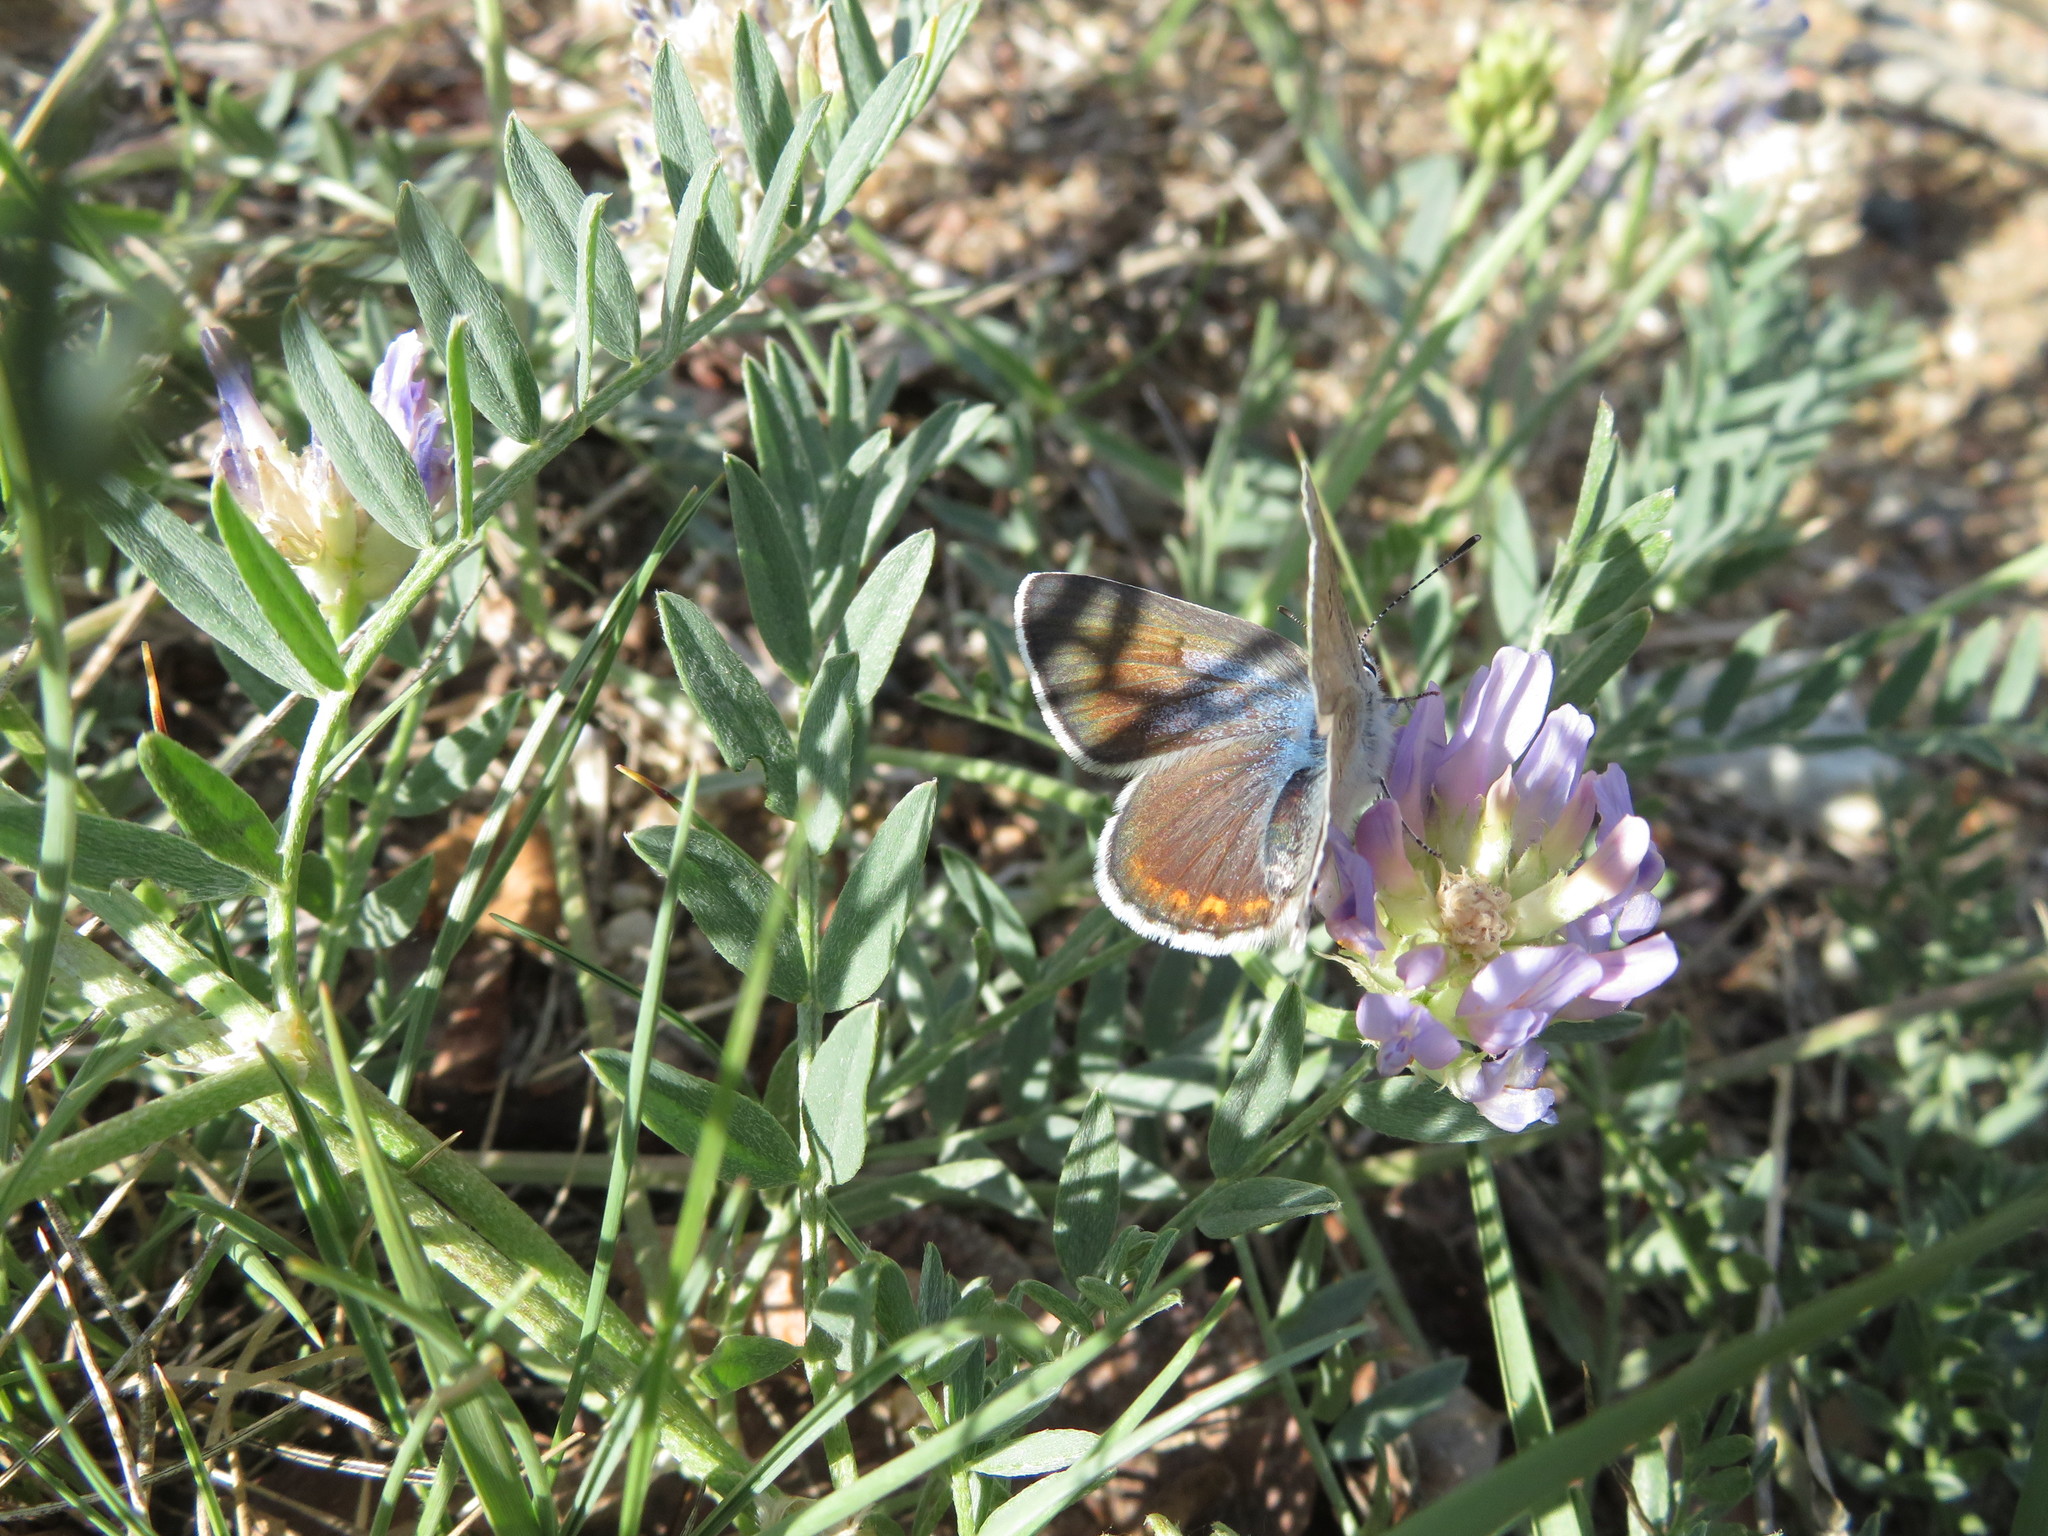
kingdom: Animalia
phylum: Arthropoda
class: Insecta
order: Lepidoptera
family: Lycaenidae
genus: Icaricia
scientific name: Icaricia saepiolus
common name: Greenish blue
